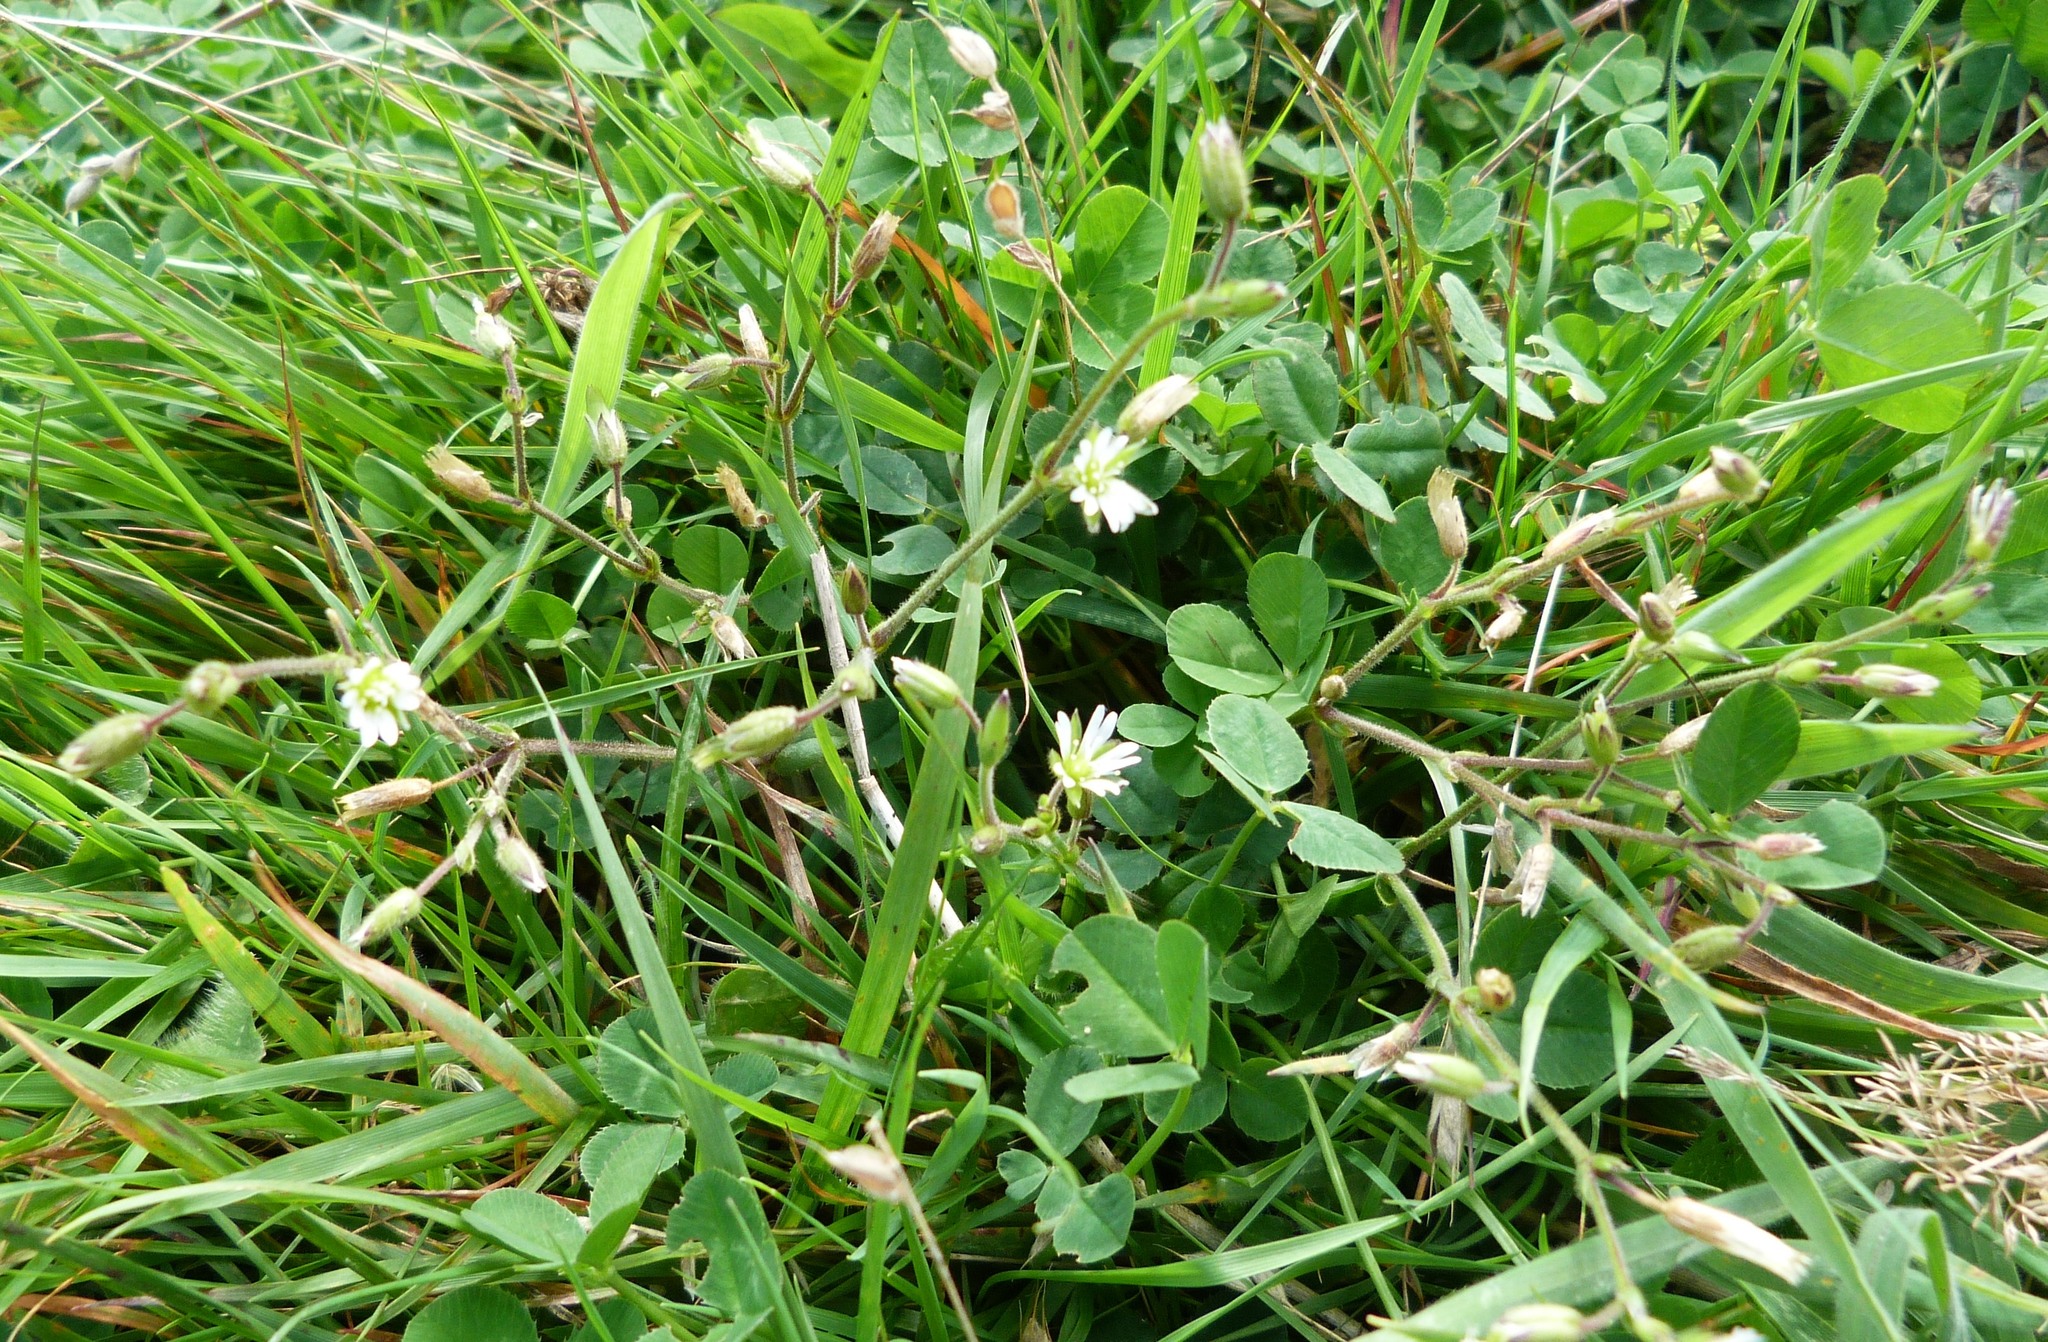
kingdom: Plantae
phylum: Tracheophyta
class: Magnoliopsida
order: Caryophyllales
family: Caryophyllaceae
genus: Cerastium
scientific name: Cerastium fontanum
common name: Common mouse-ear
